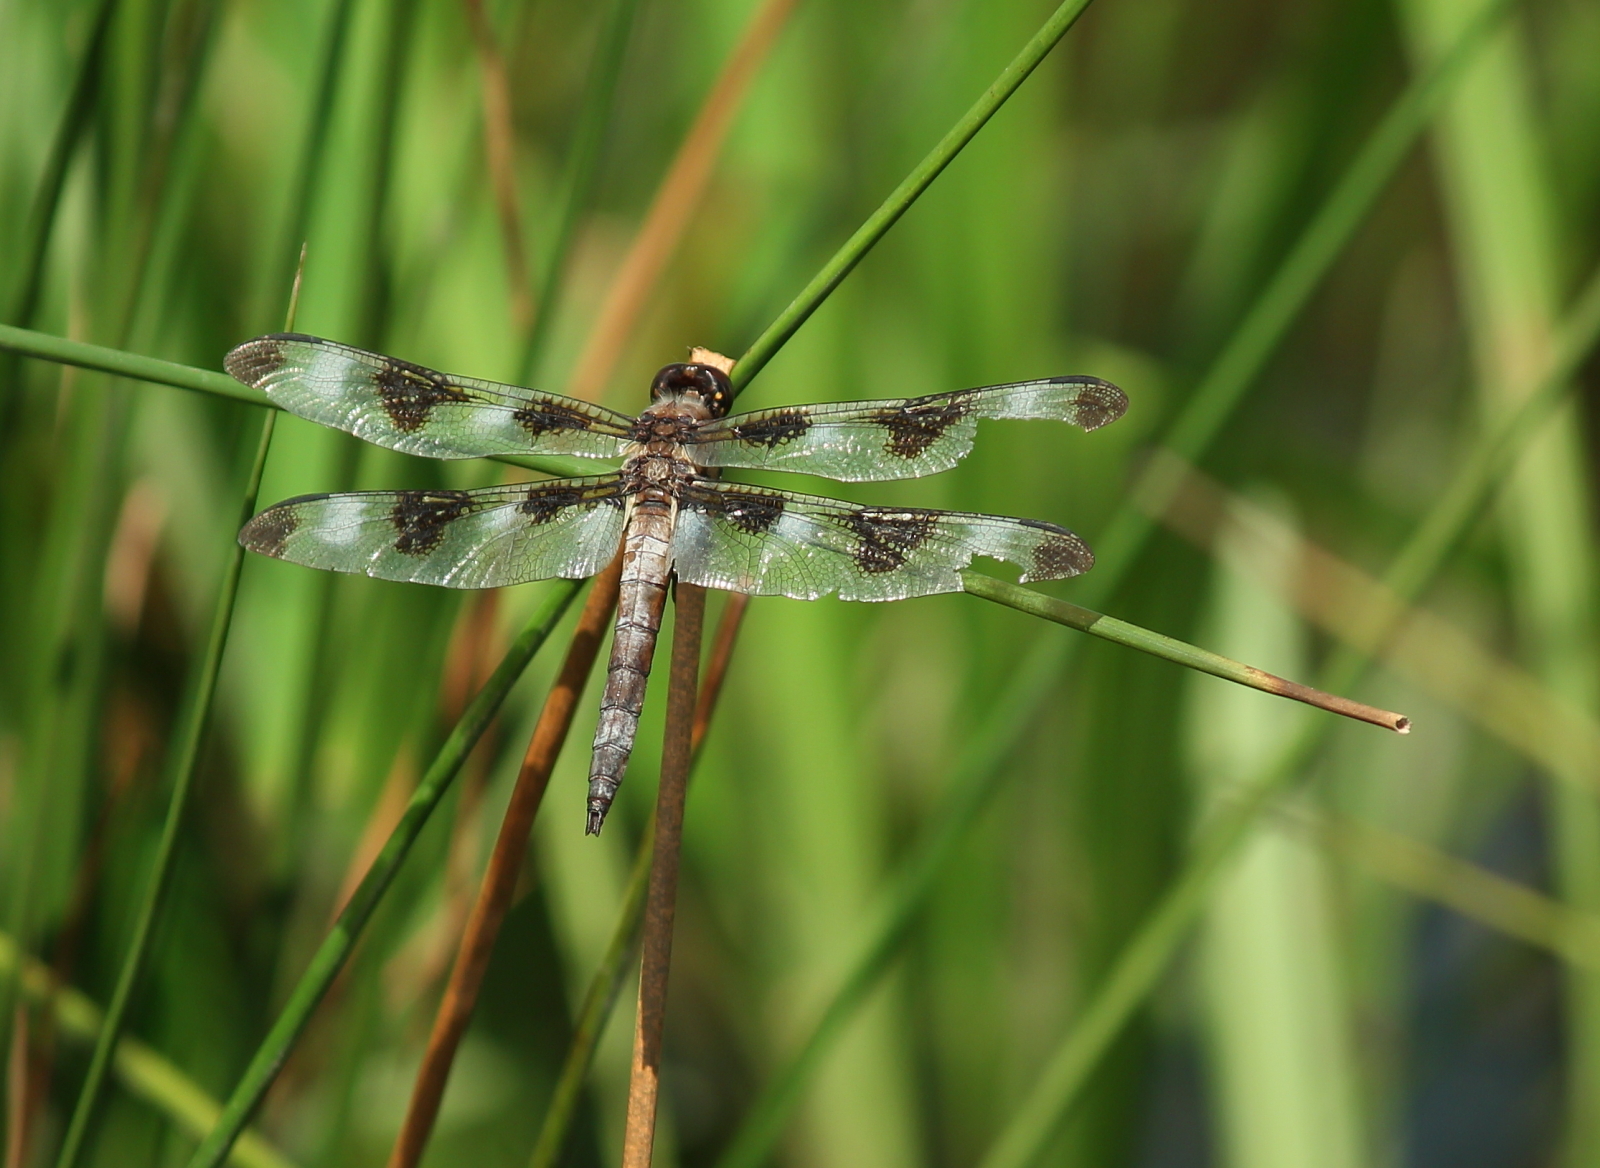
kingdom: Animalia
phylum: Arthropoda
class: Insecta
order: Odonata
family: Libellulidae
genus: Libellula
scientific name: Libellula pulchella
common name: Twelve-spotted skimmer
